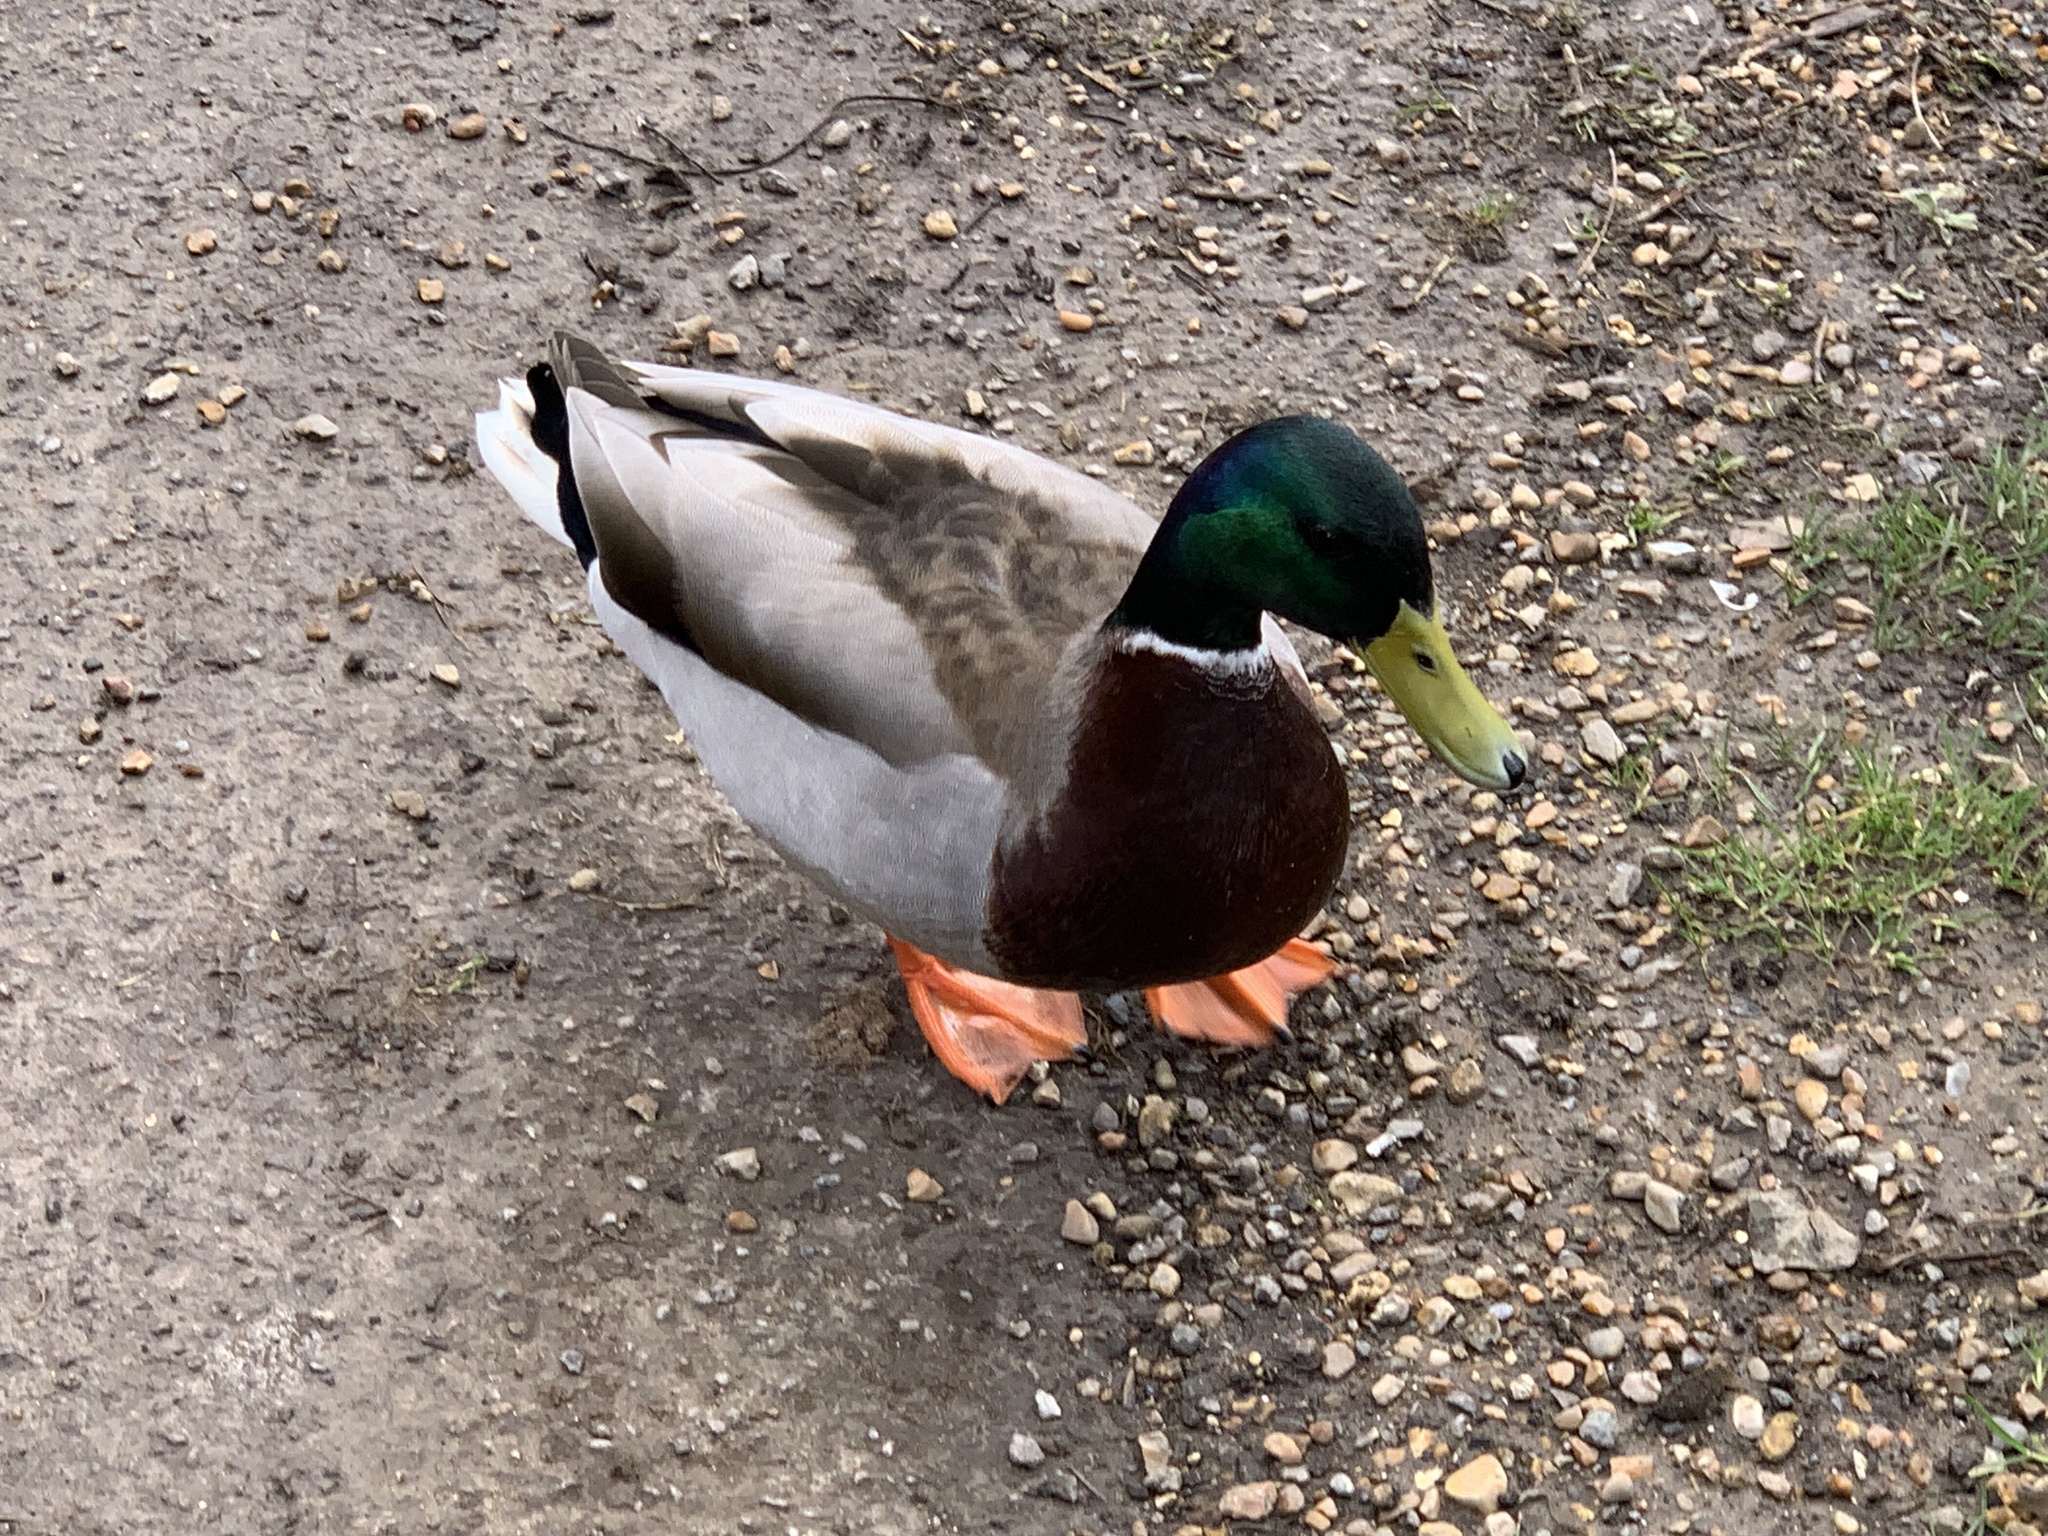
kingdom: Animalia
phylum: Chordata
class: Aves
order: Anseriformes
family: Anatidae
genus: Anas
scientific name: Anas platyrhynchos
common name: Mallard
